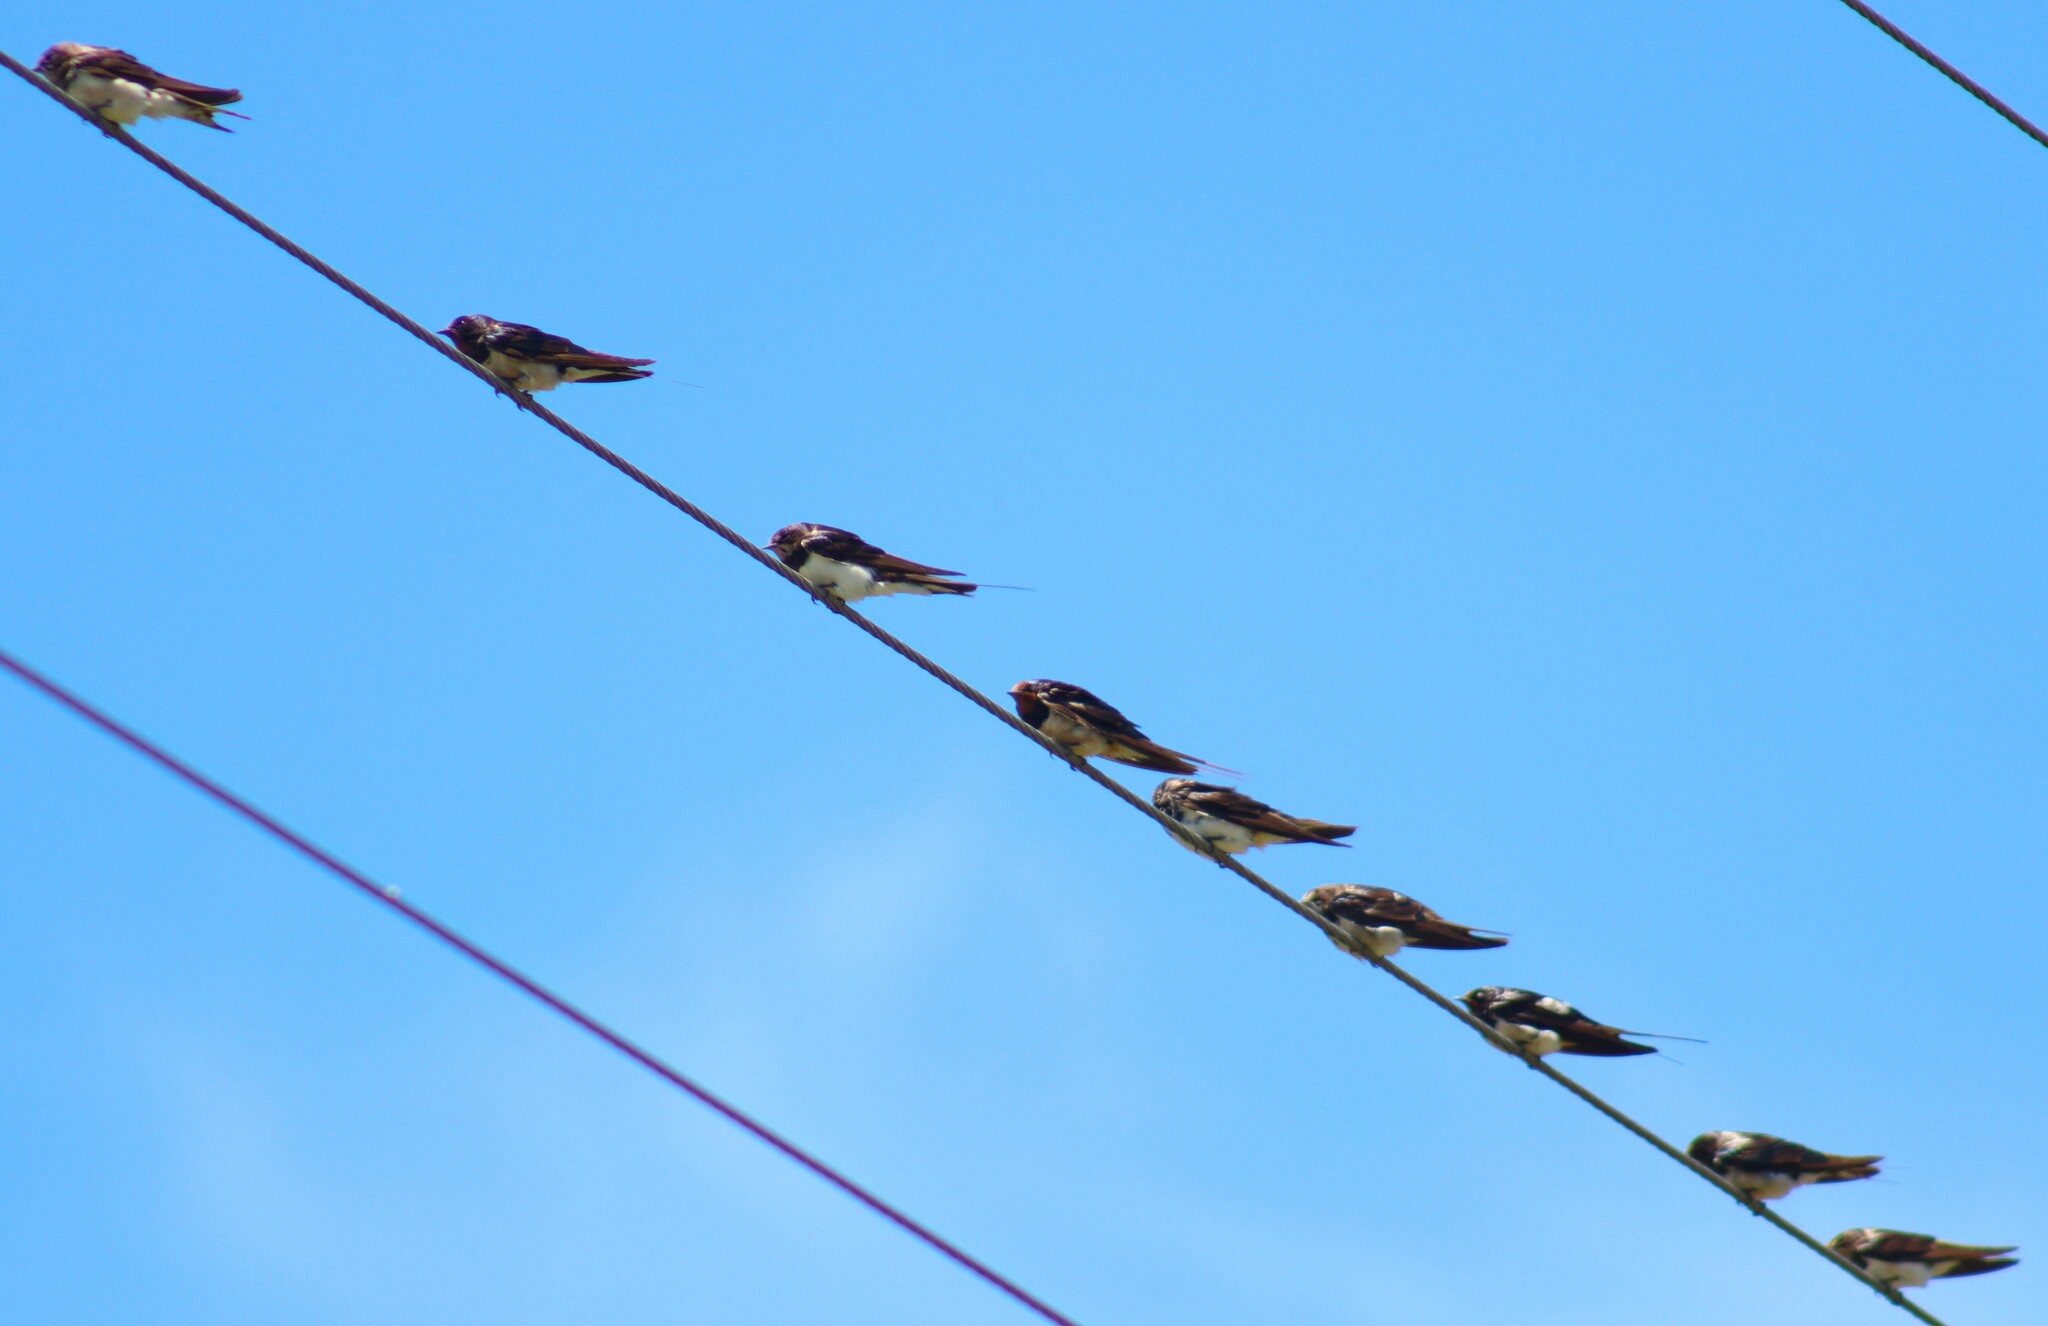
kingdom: Animalia
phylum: Chordata
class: Aves
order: Passeriformes
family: Hirundinidae
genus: Hirundo
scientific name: Hirundo rustica
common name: Barn swallow
